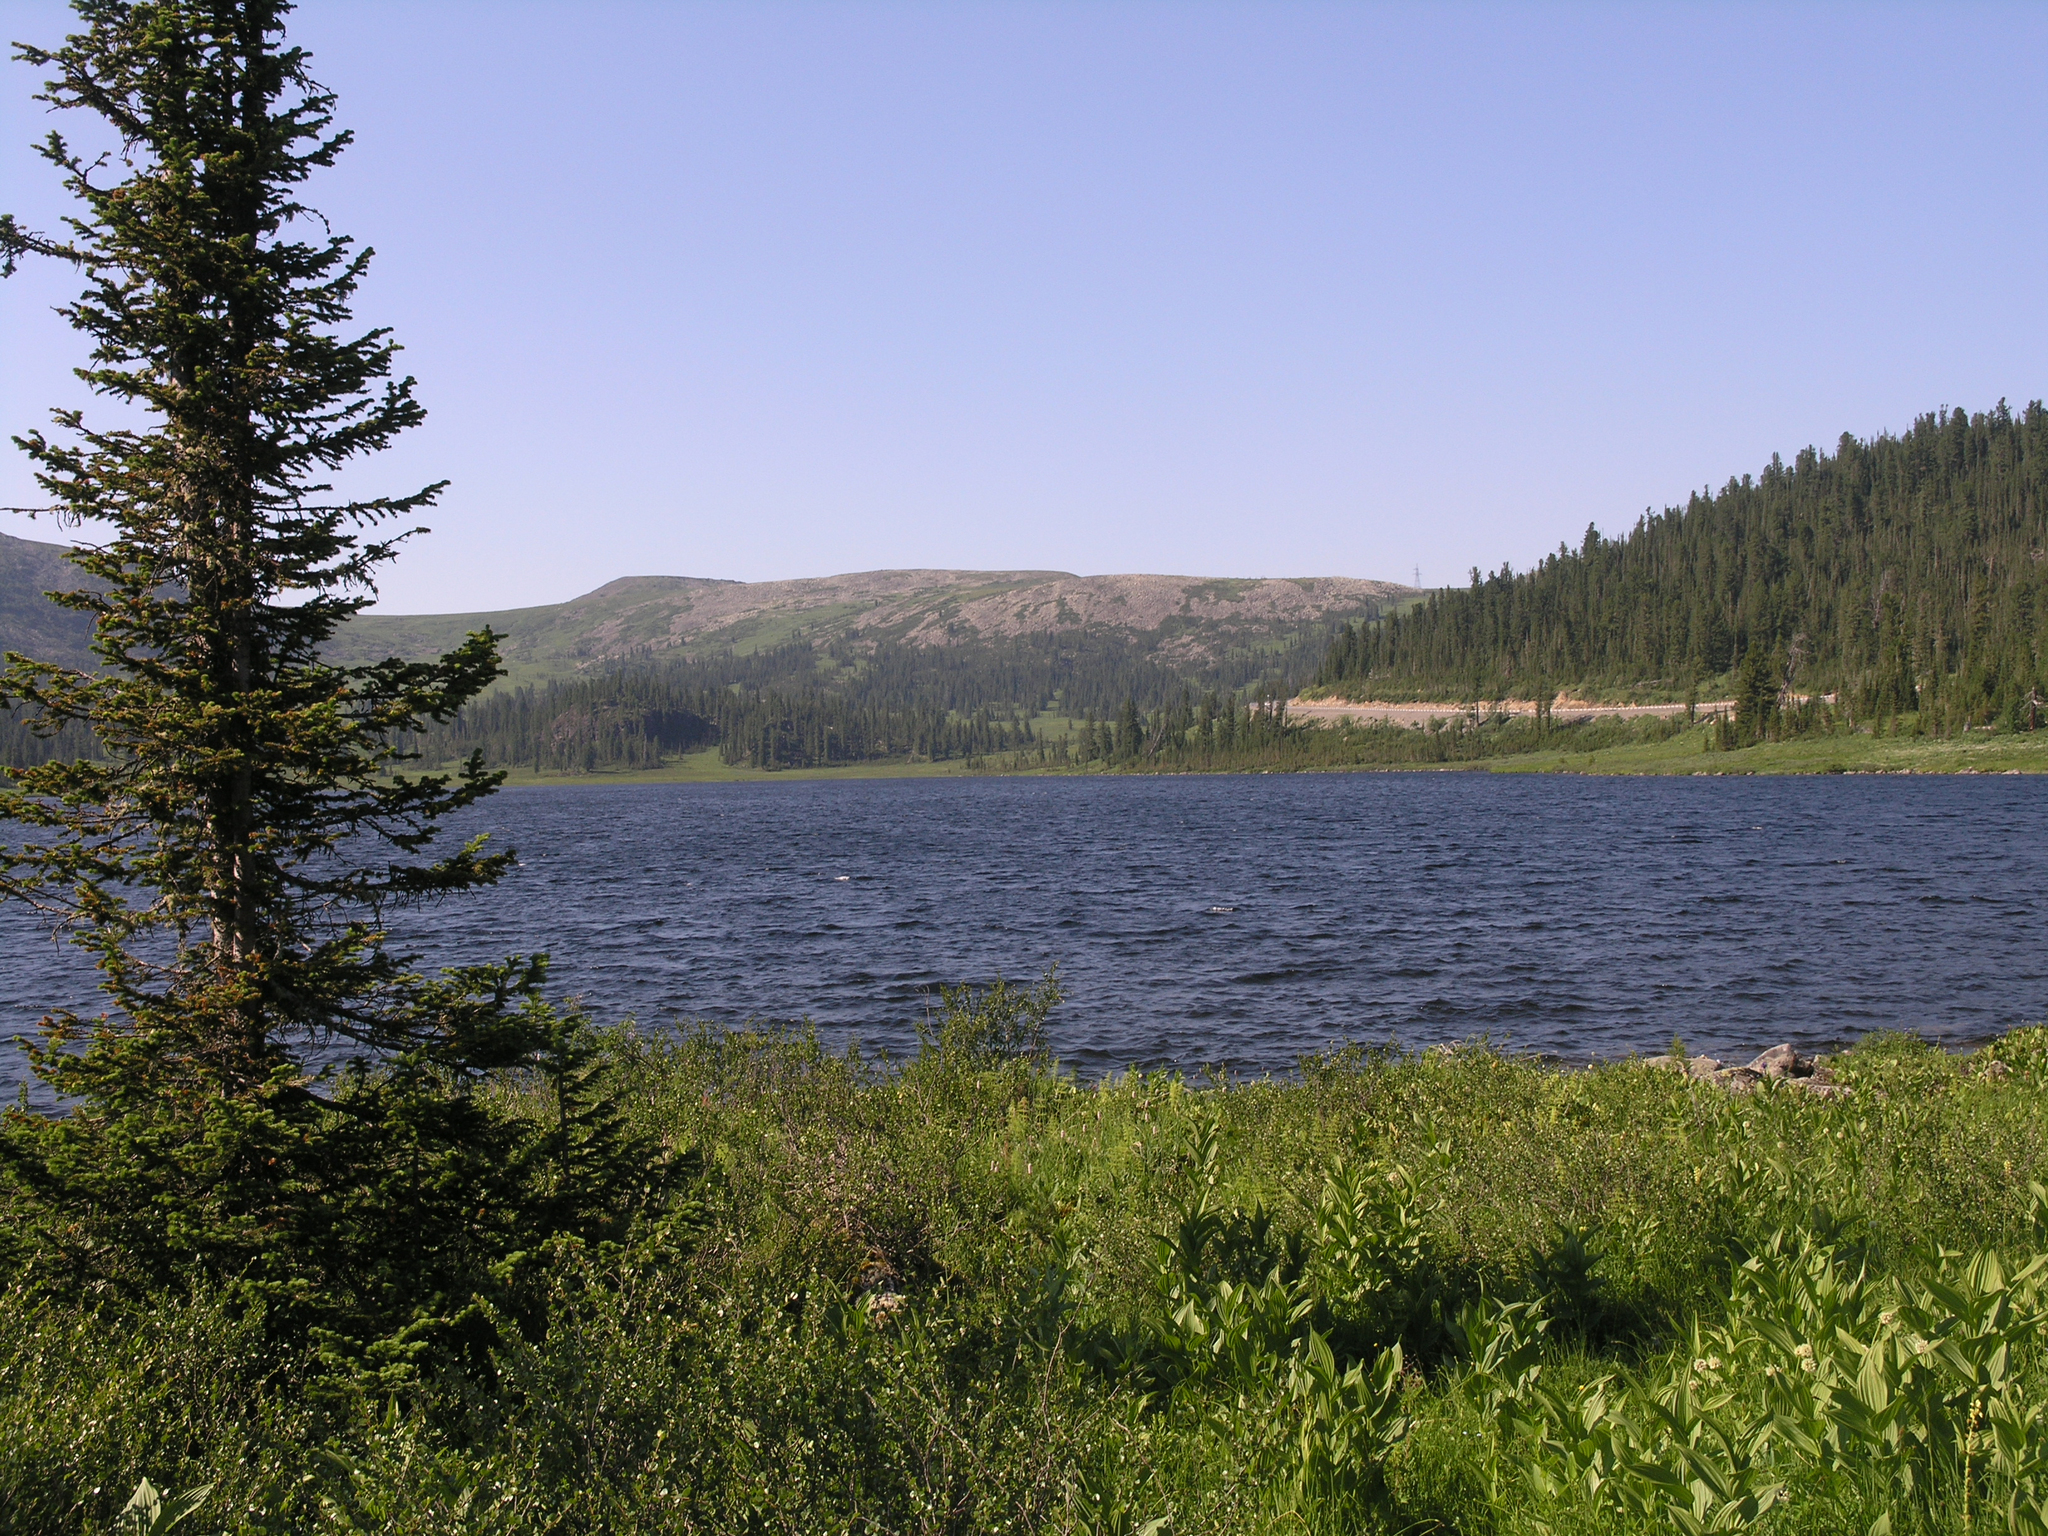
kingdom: Plantae
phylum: Tracheophyta
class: Pinopsida
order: Pinales
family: Pinaceae
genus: Abies
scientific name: Abies sibirica
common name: Siberian fir
